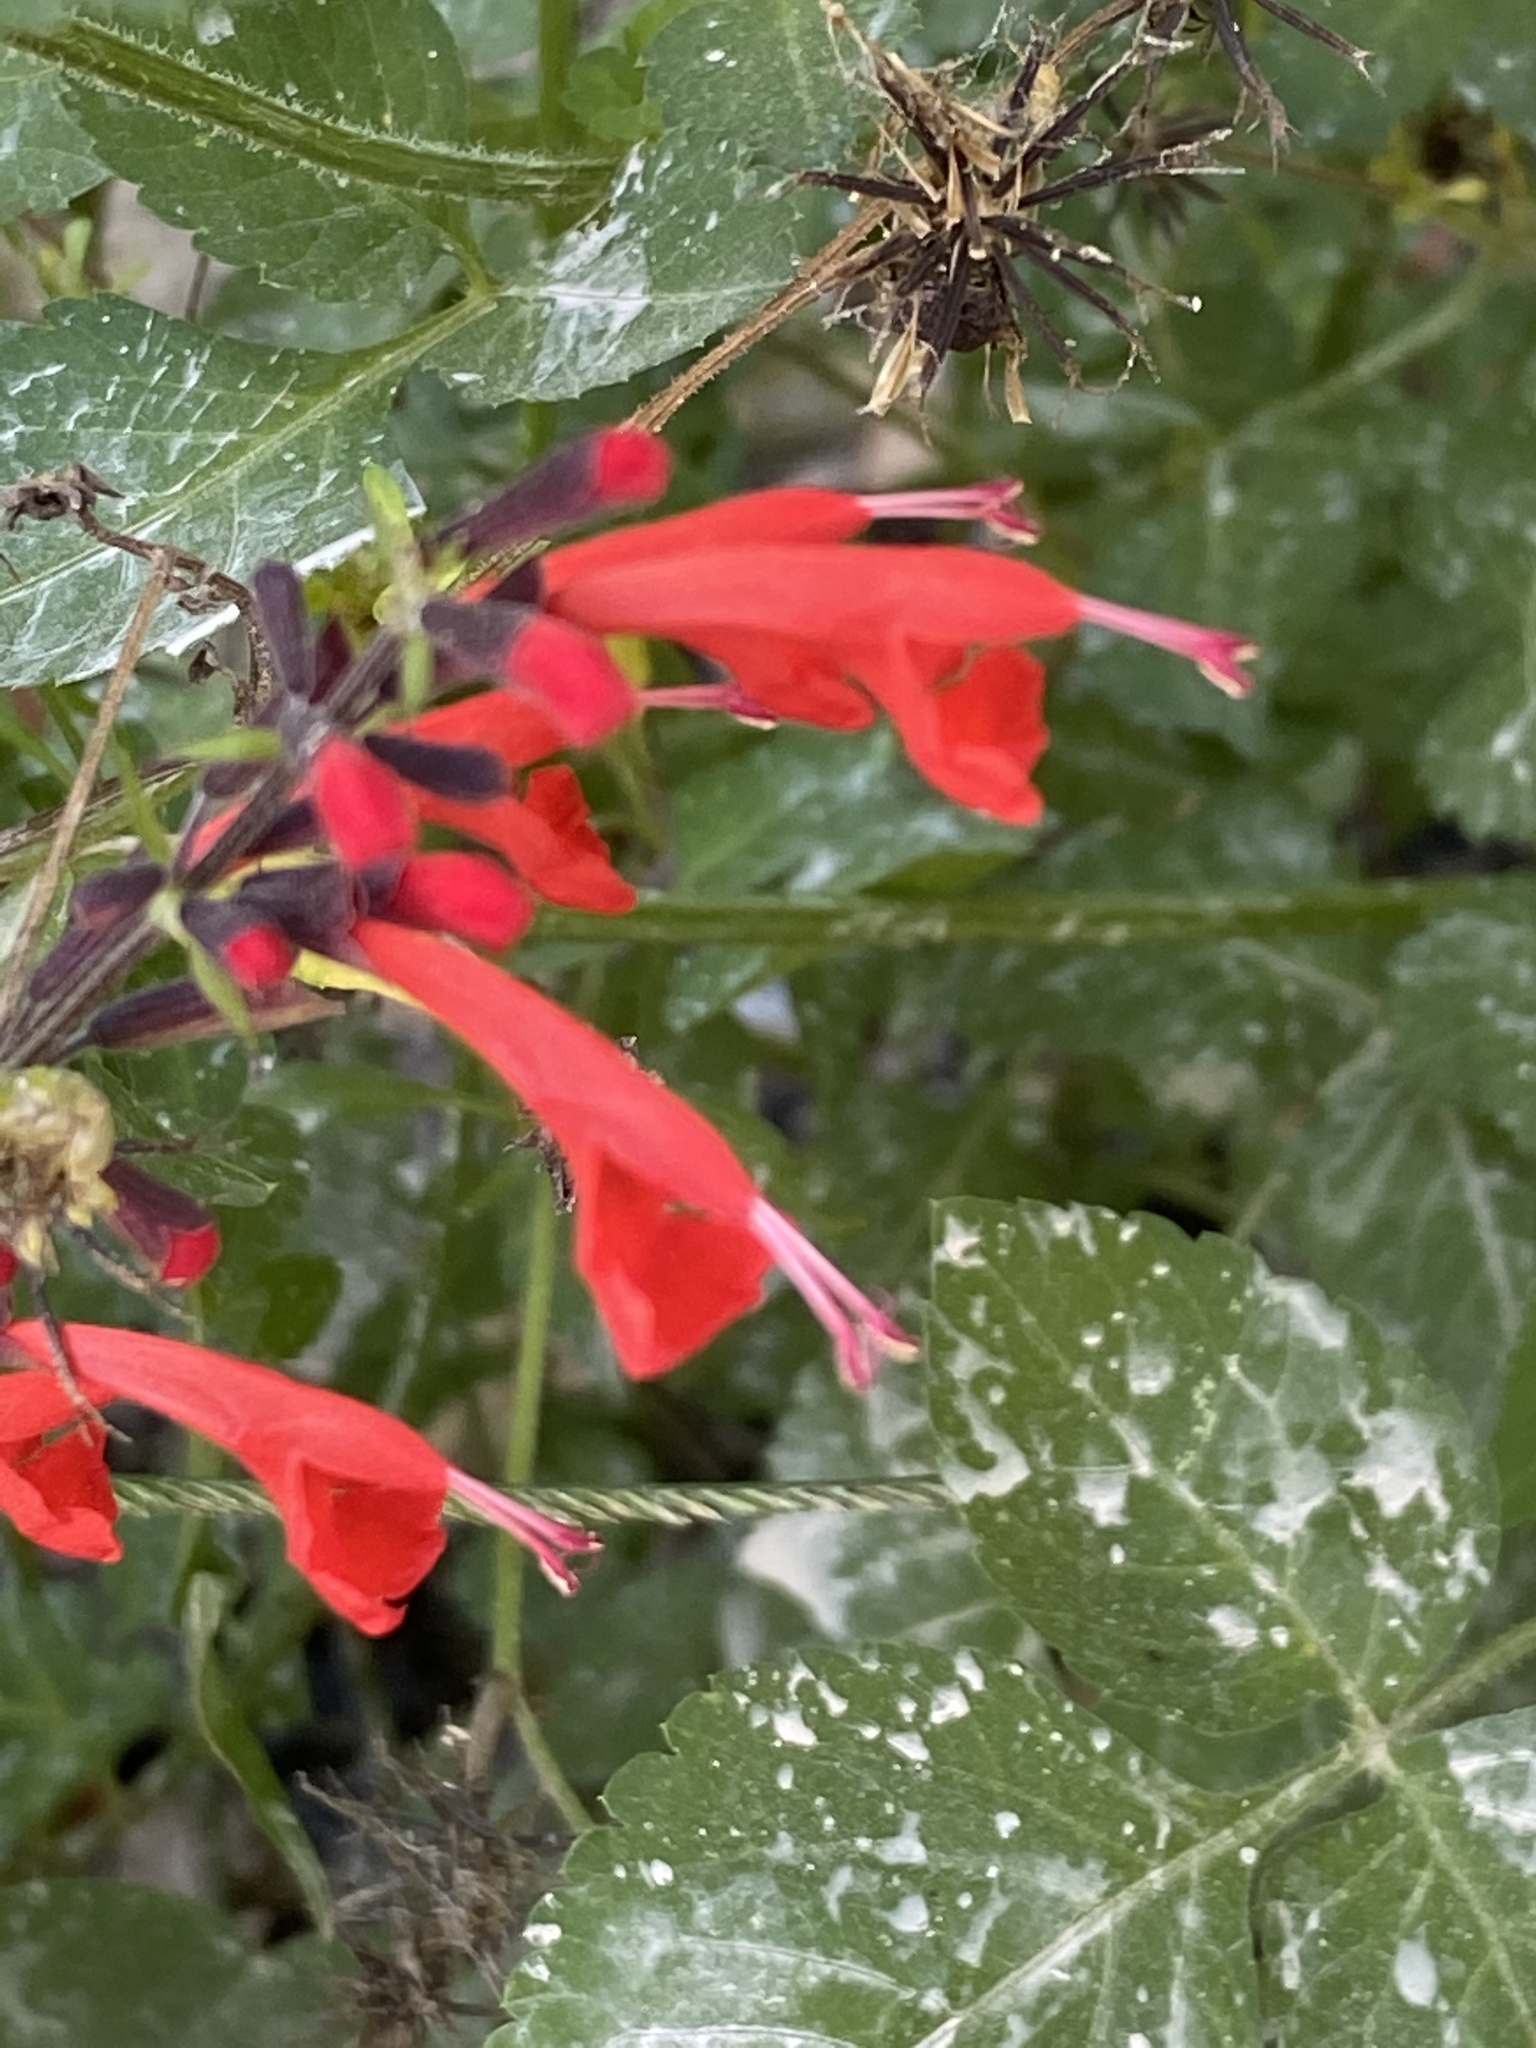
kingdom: Plantae
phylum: Tracheophyta
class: Magnoliopsida
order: Lamiales
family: Lamiaceae
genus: Salvia
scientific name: Salvia coccinea
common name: Blood sage
